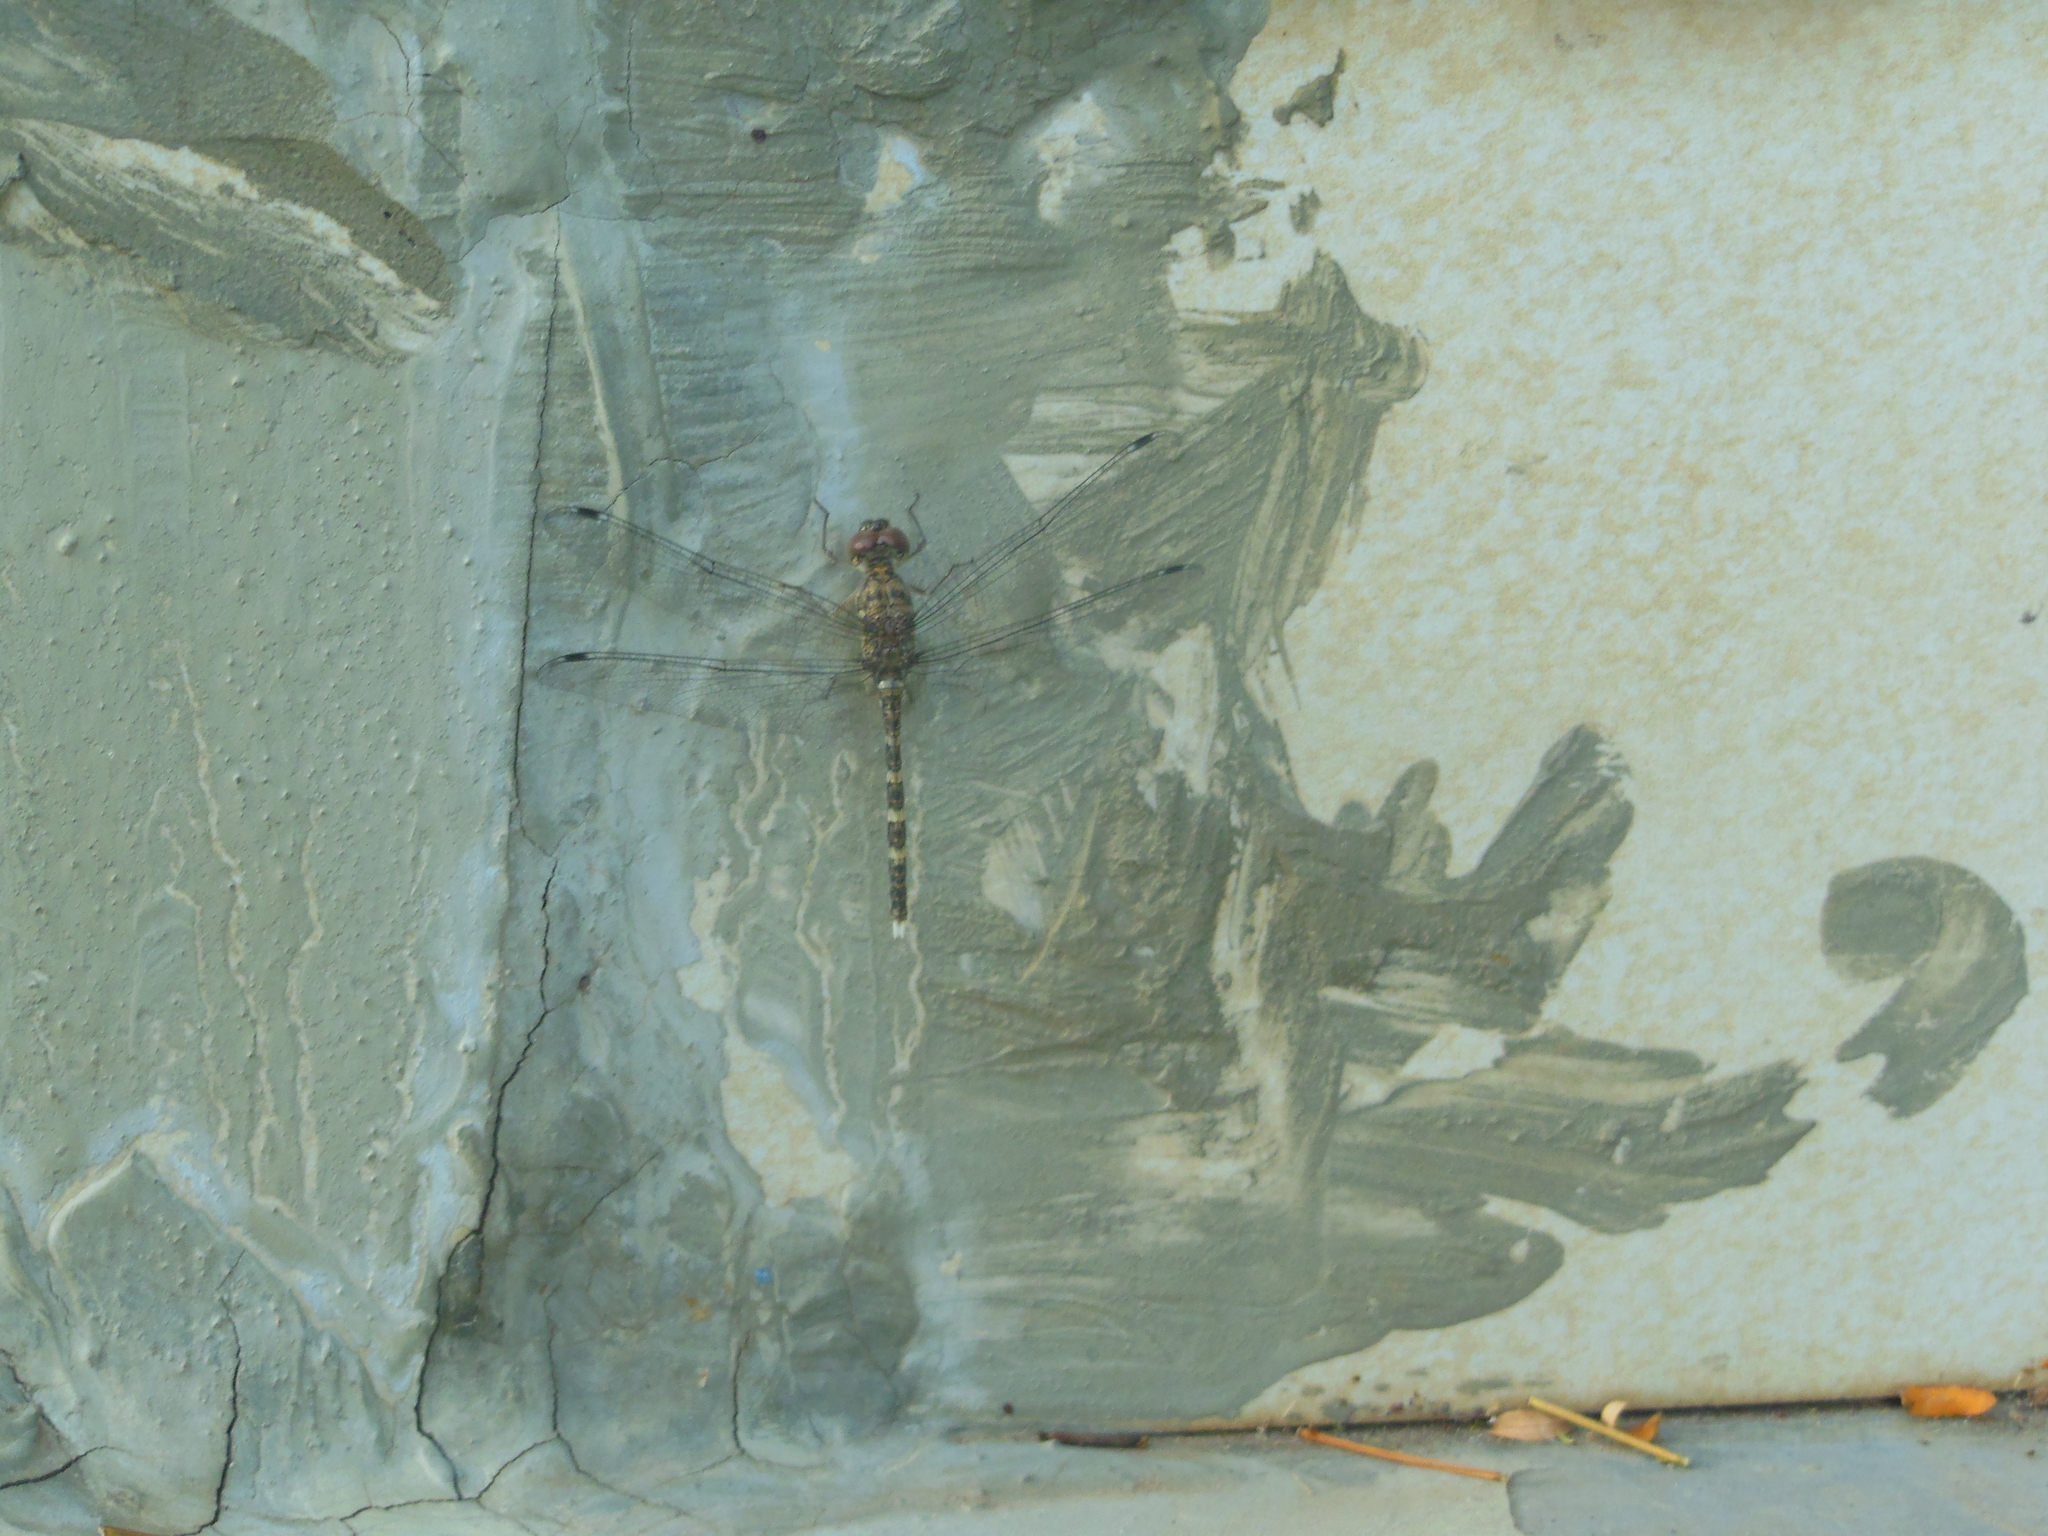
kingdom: Animalia
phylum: Arthropoda
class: Insecta
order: Odonata
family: Libellulidae
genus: Bradinopyga
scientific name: Bradinopyga geminata
